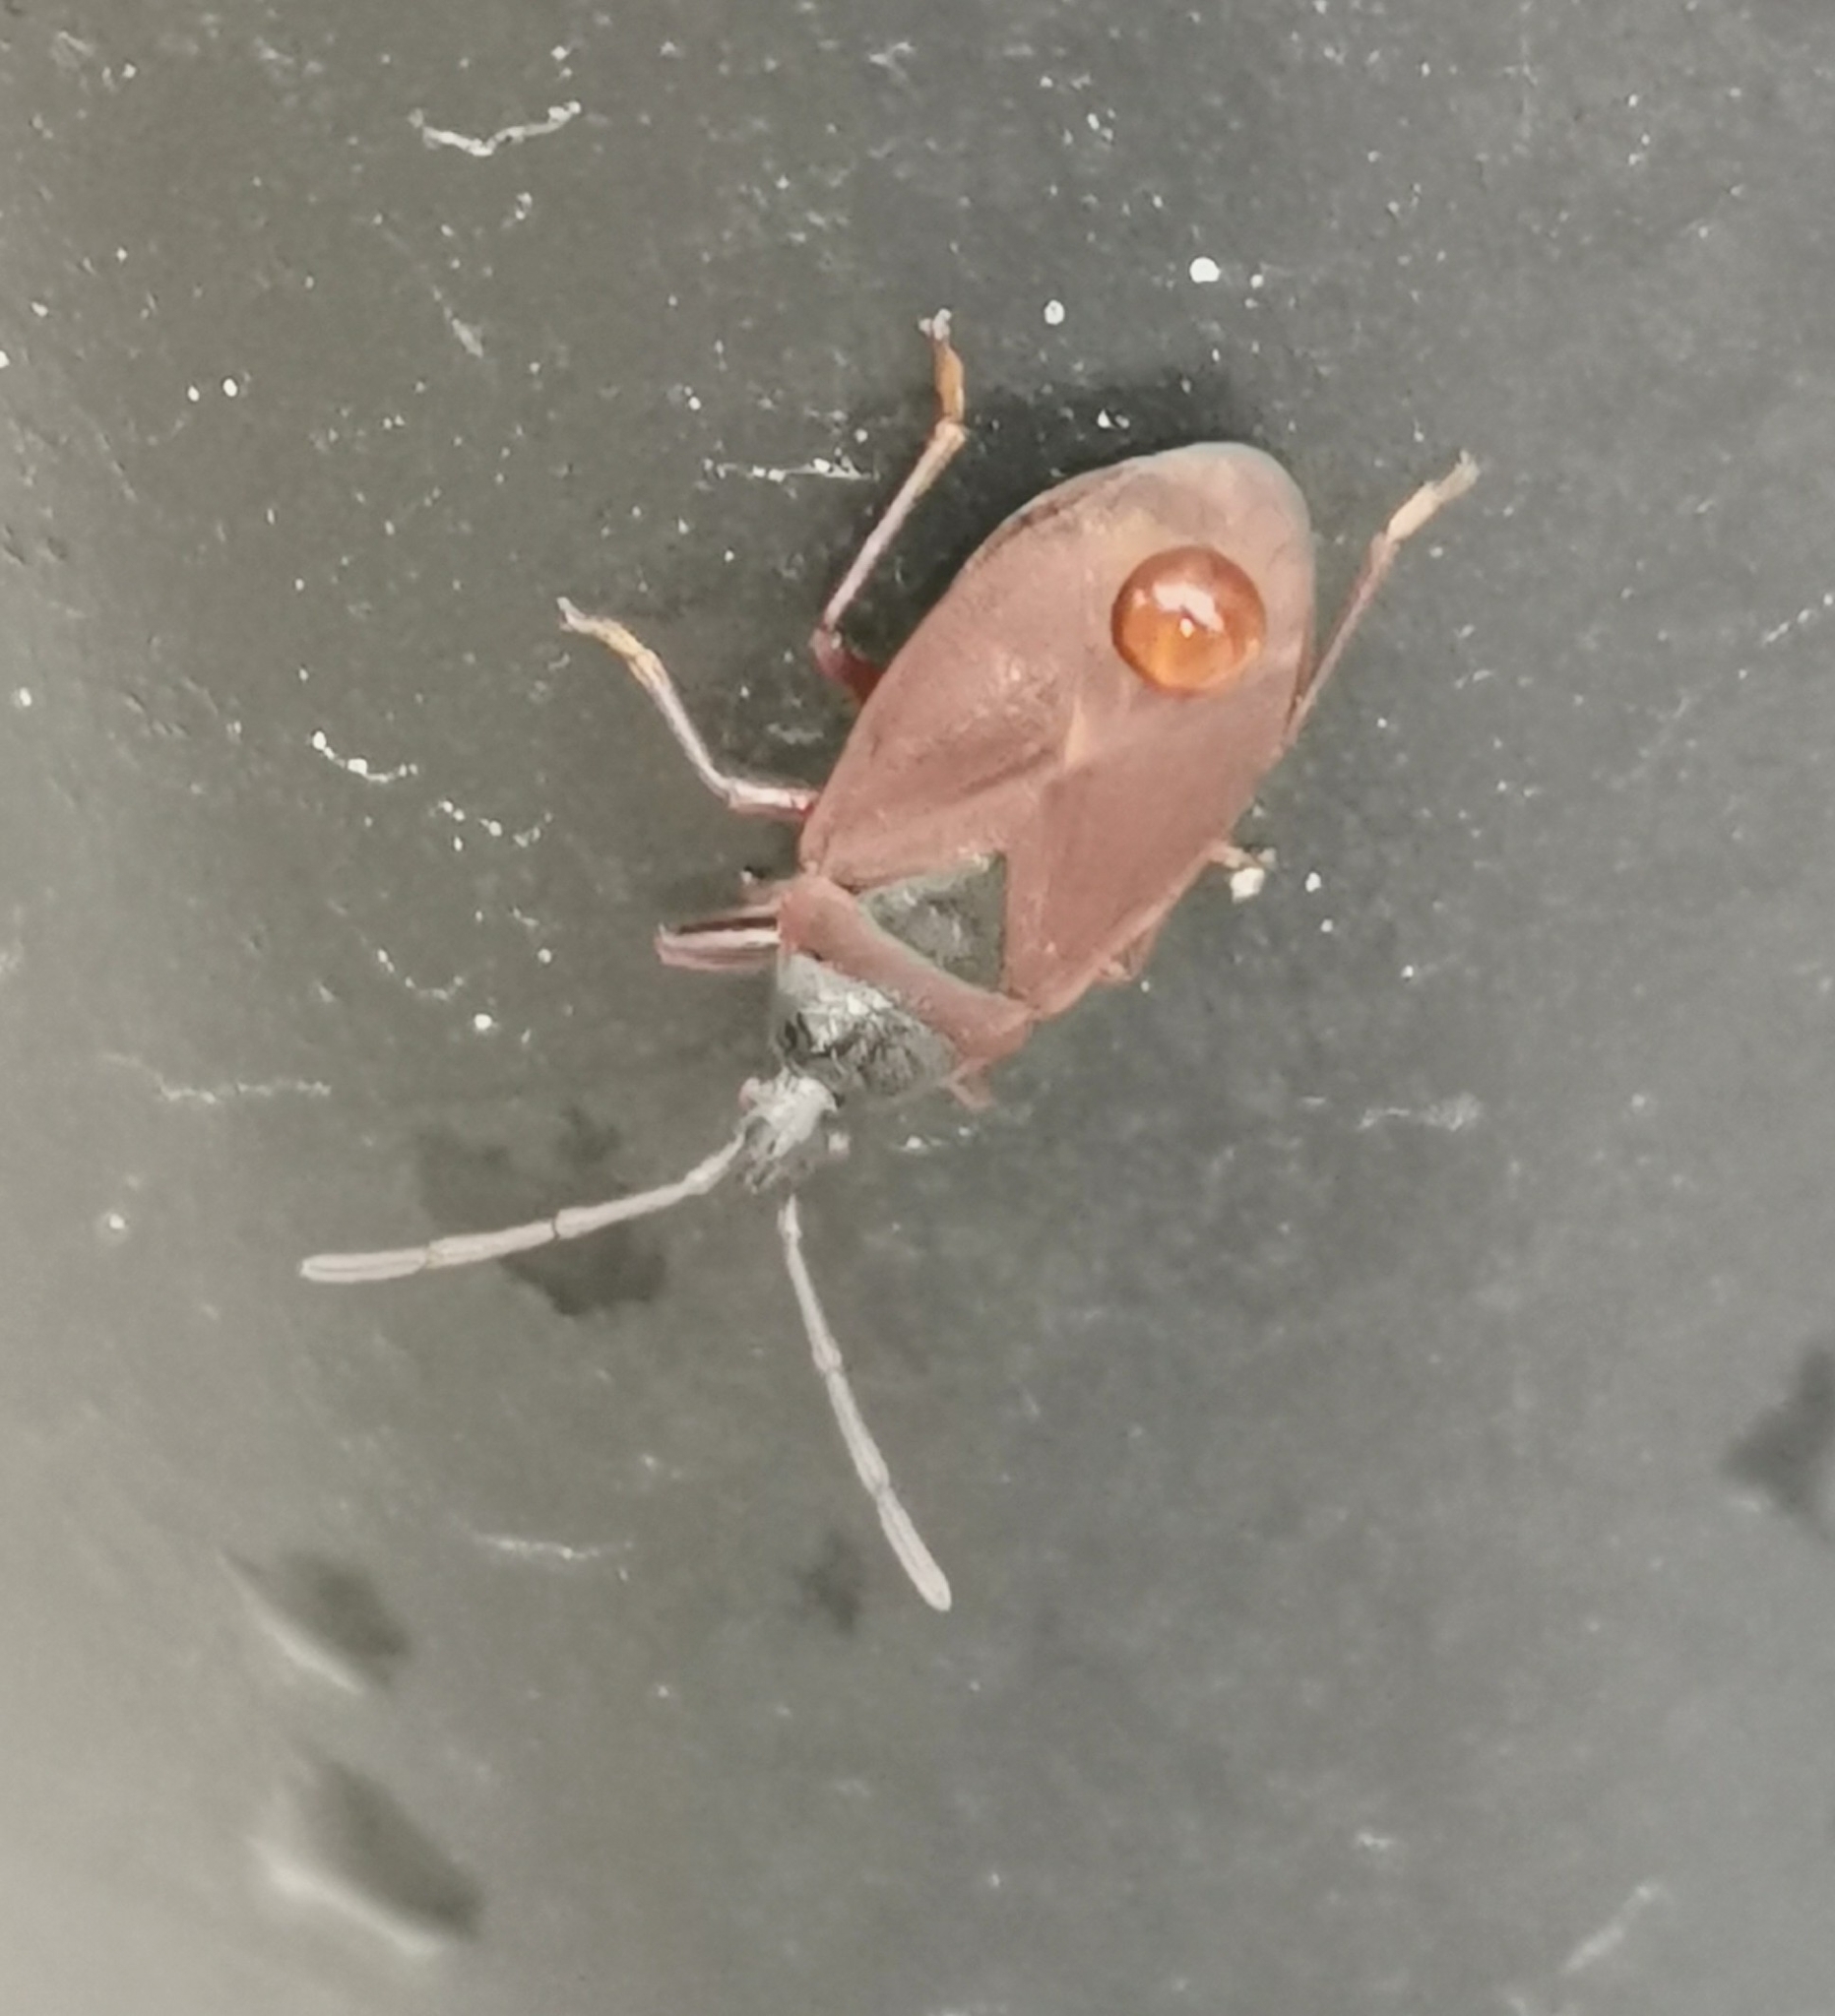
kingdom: Animalia
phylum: Arthropoda
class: Insecta
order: Hemiptera
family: Rhyparochromidae
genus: Gastrodes
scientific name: Gastrodes grossipes
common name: Pine cone bug
